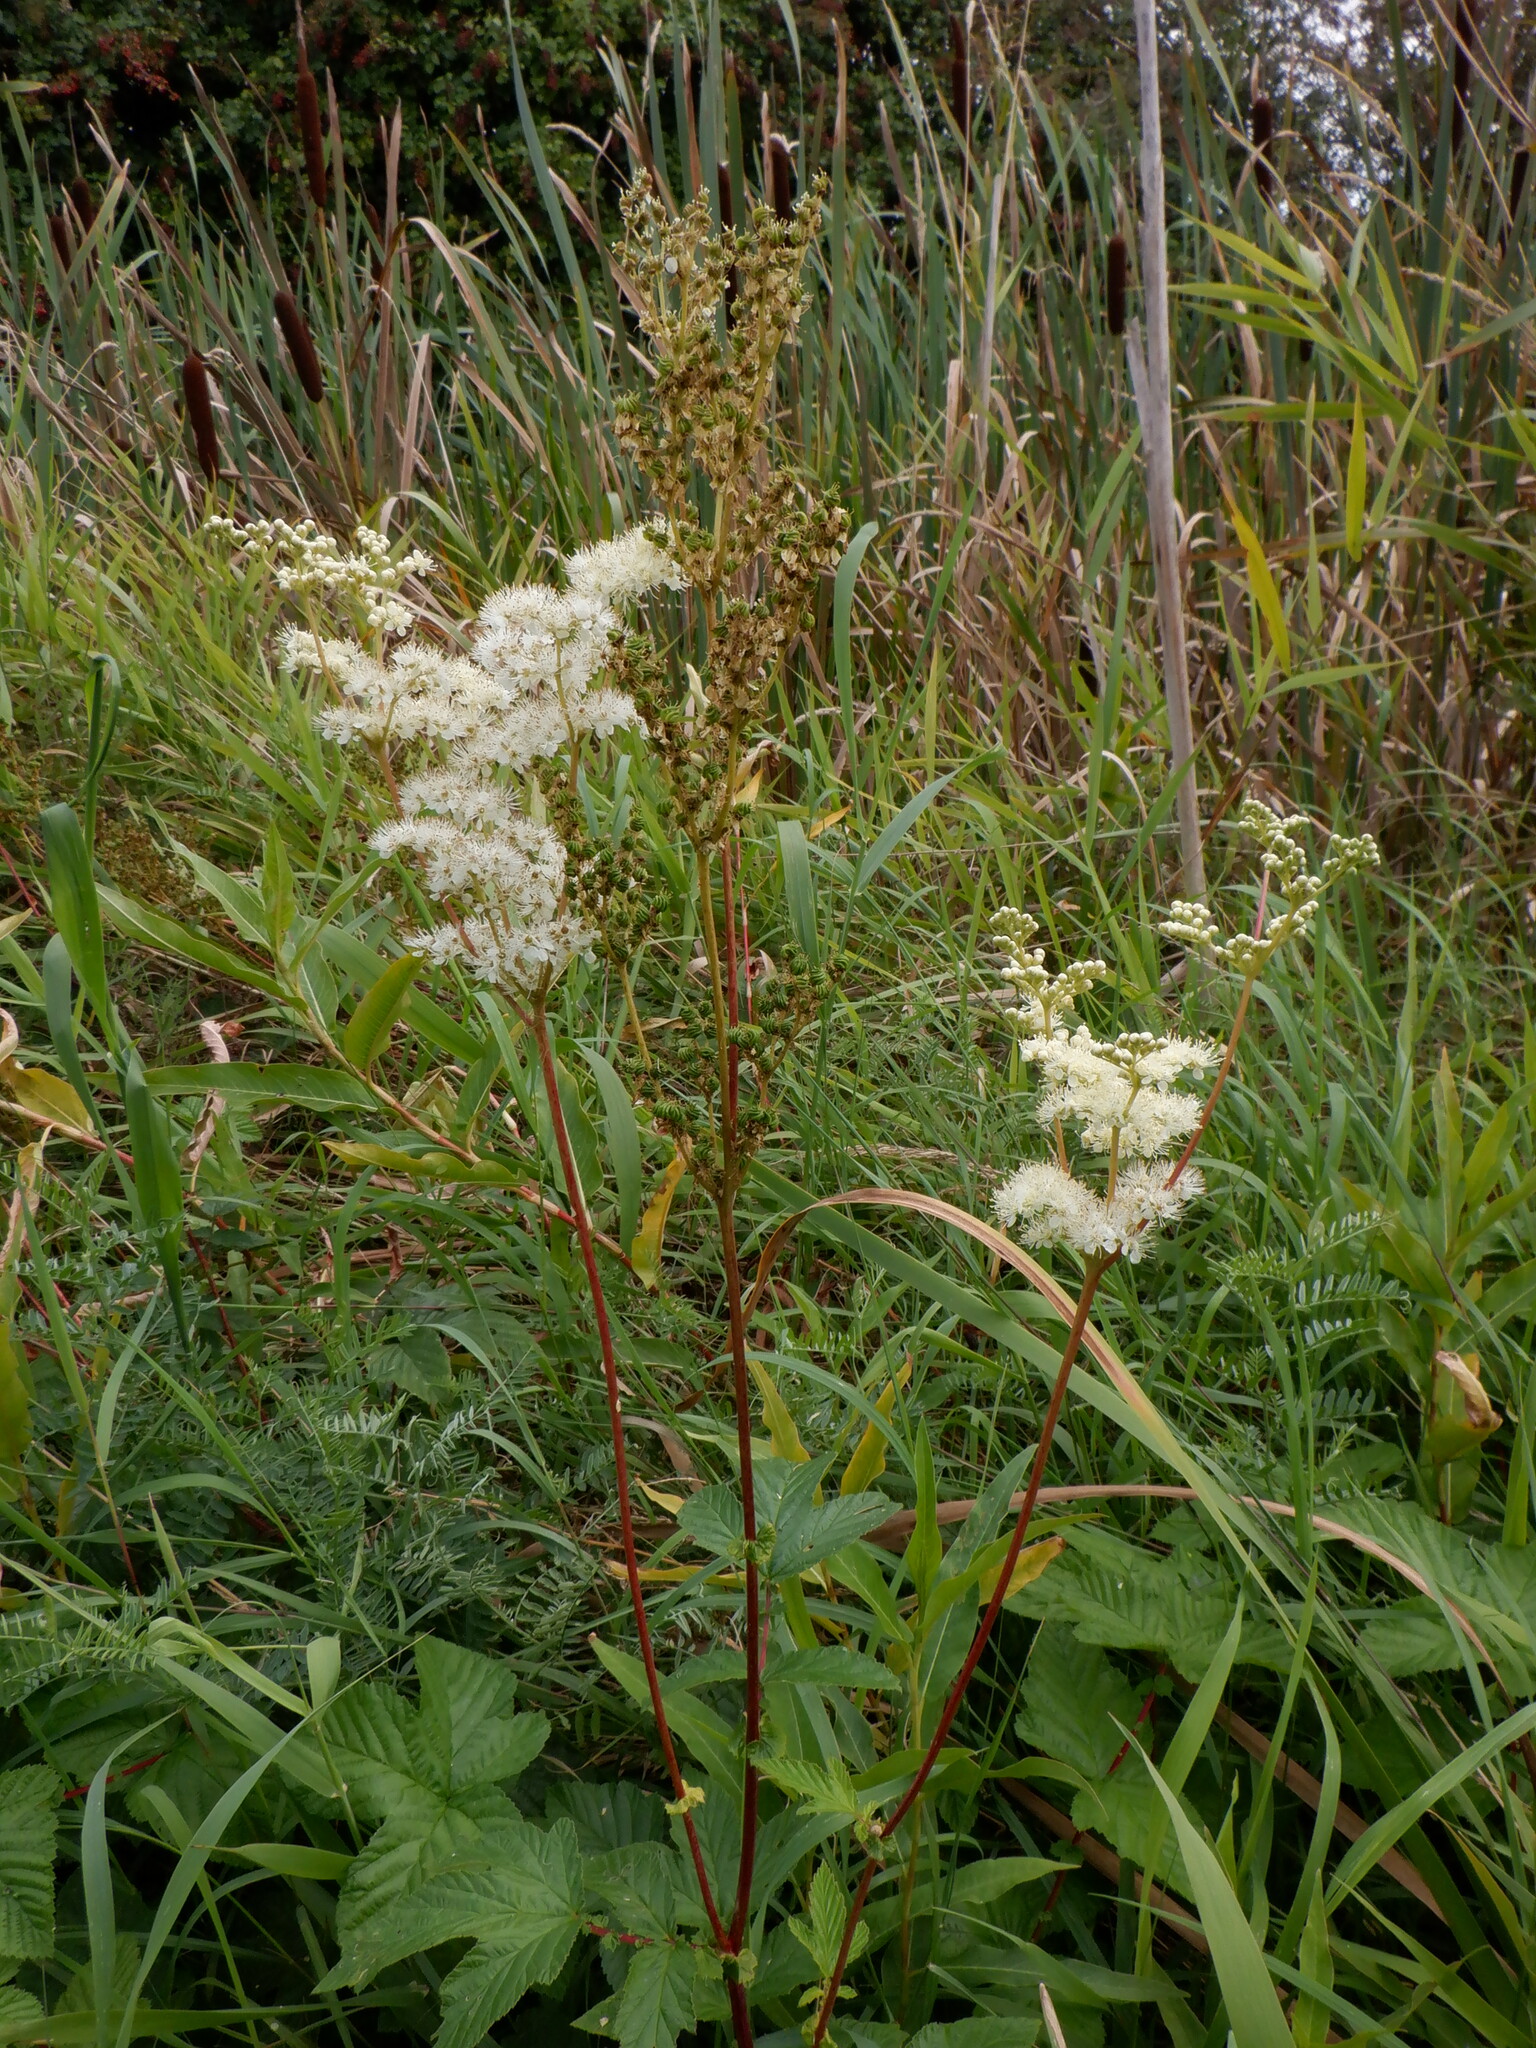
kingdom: Plantae
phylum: Tracheophyta
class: Magnoliopsida
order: Rosales
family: Rosaceae
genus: Filipendula
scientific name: Filipendula ulmaria
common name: Meadowsweet
